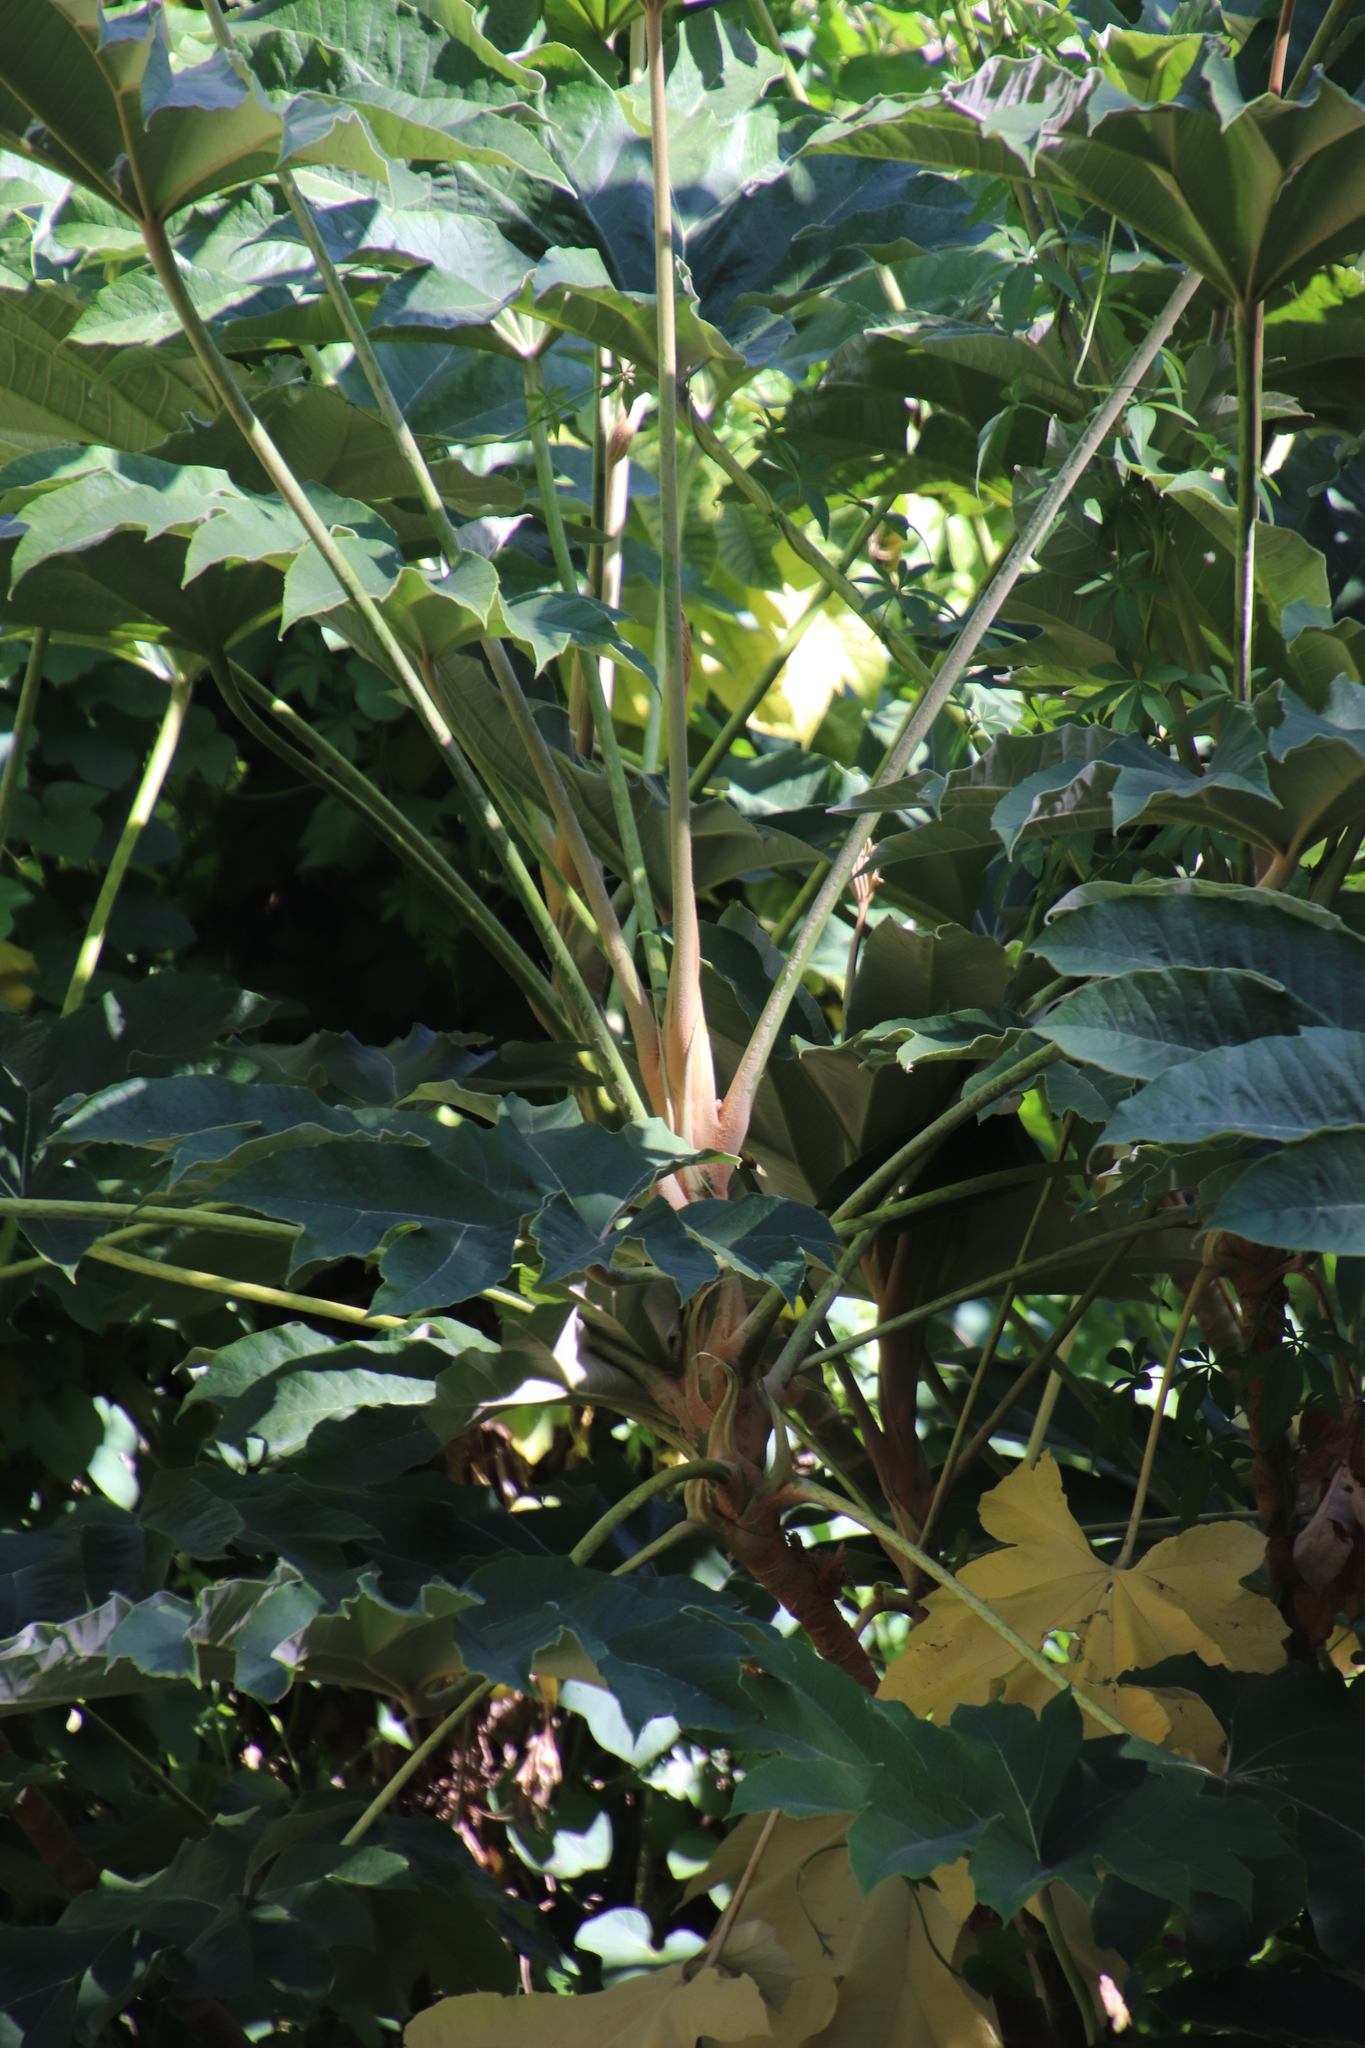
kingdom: Plantae
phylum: Tracheophyta
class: Magnoliopsida
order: Apiales
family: Araliaceae
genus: Tetrapanax
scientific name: Tetrapanax papyrifer
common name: Rice-paper plant
